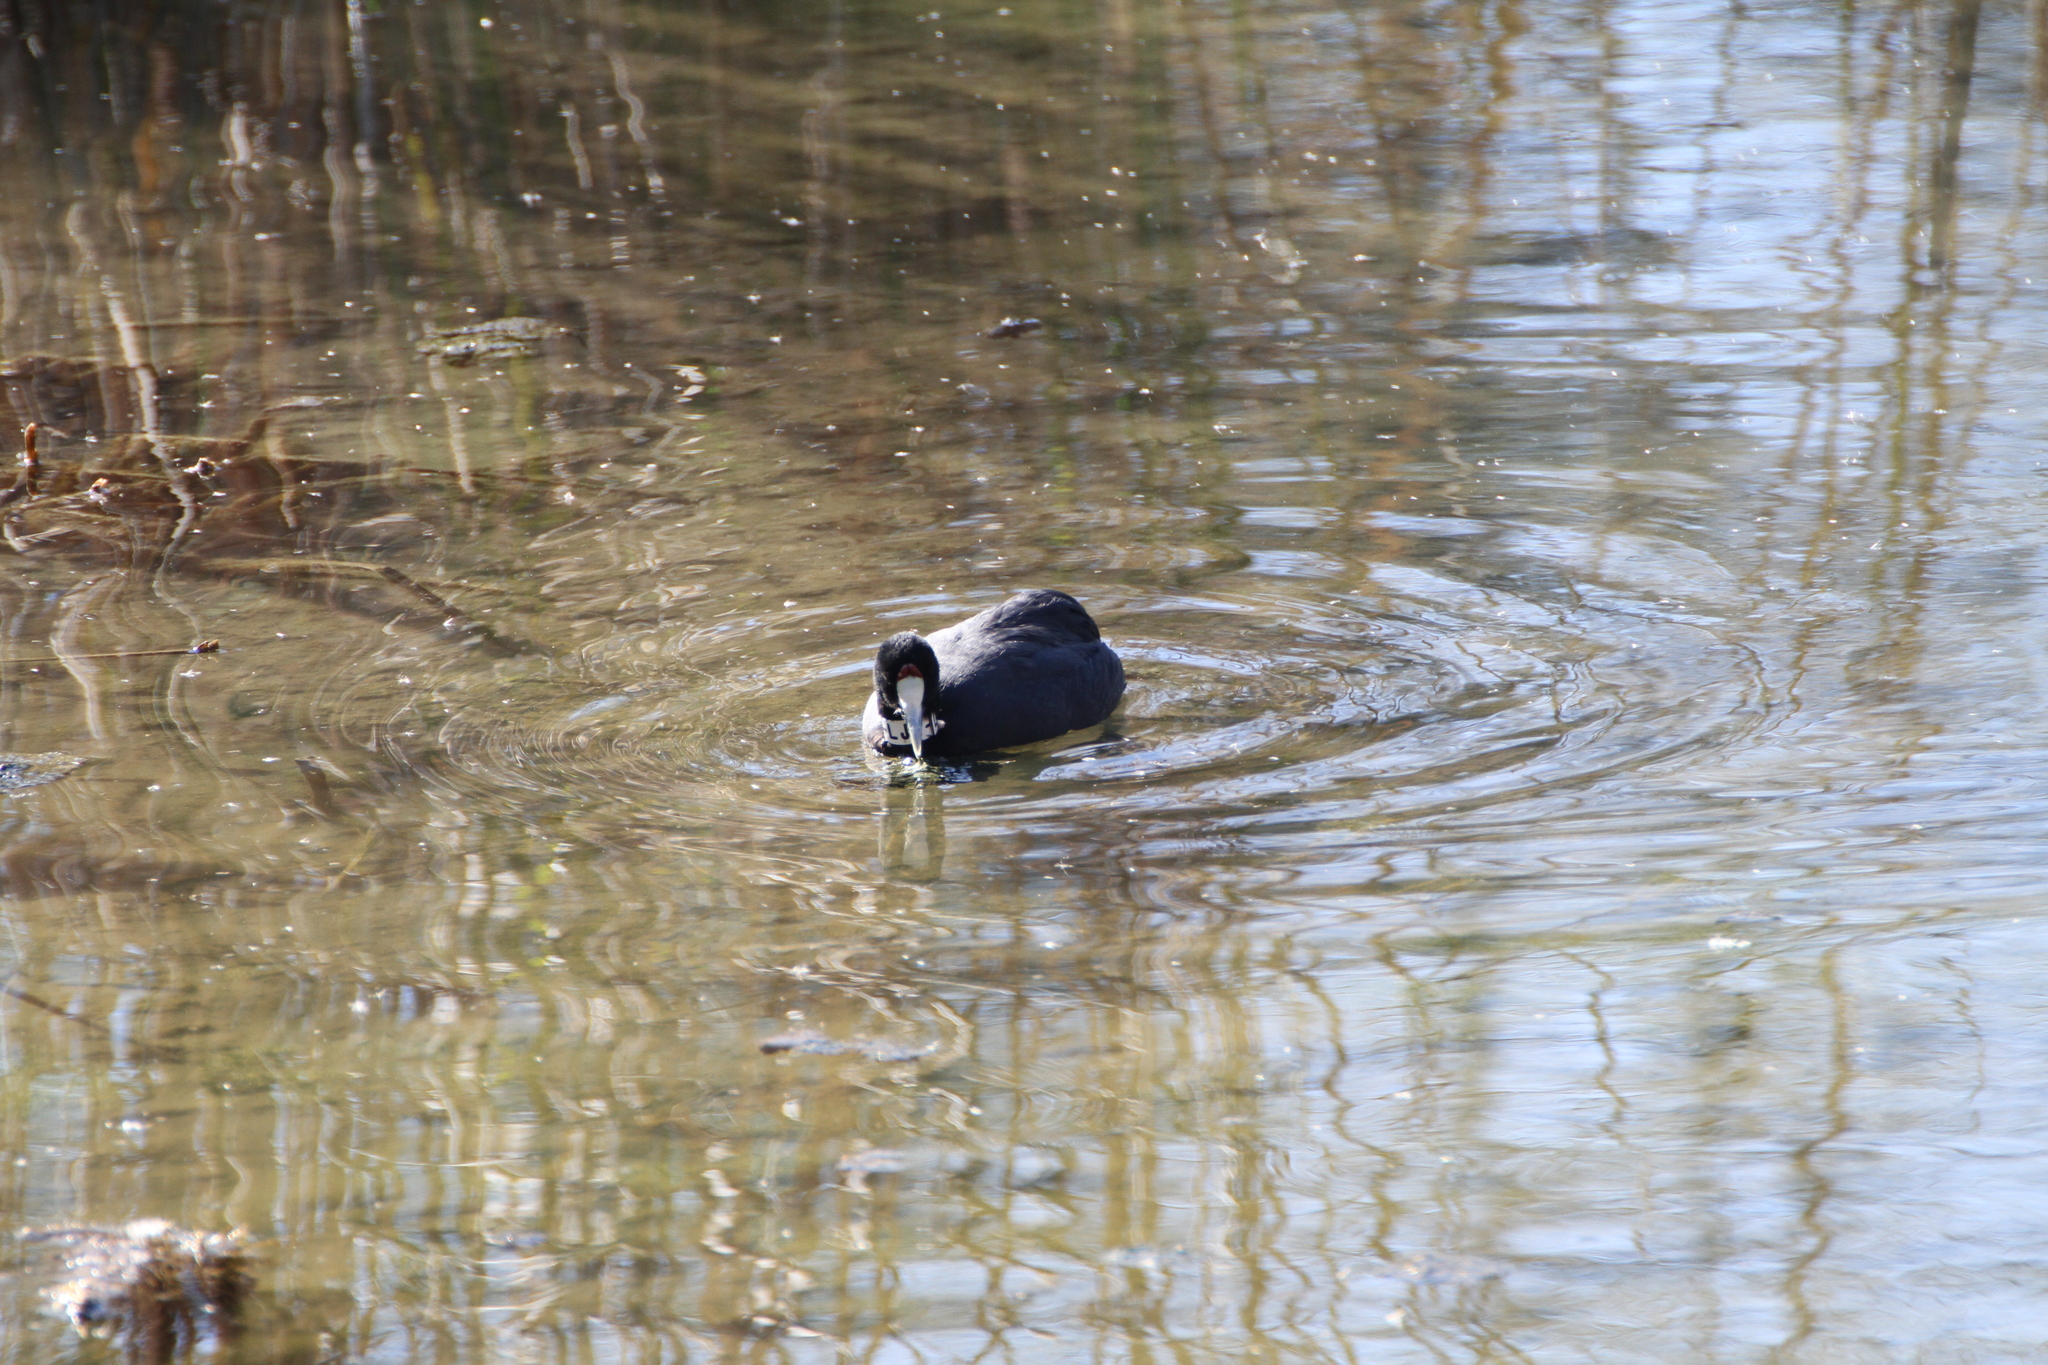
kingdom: Animalia
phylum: Chordata
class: Aves
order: Gruiformes
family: Rallidae
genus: Fulica
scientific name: Fulica cristata
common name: Red-knobbed coot
